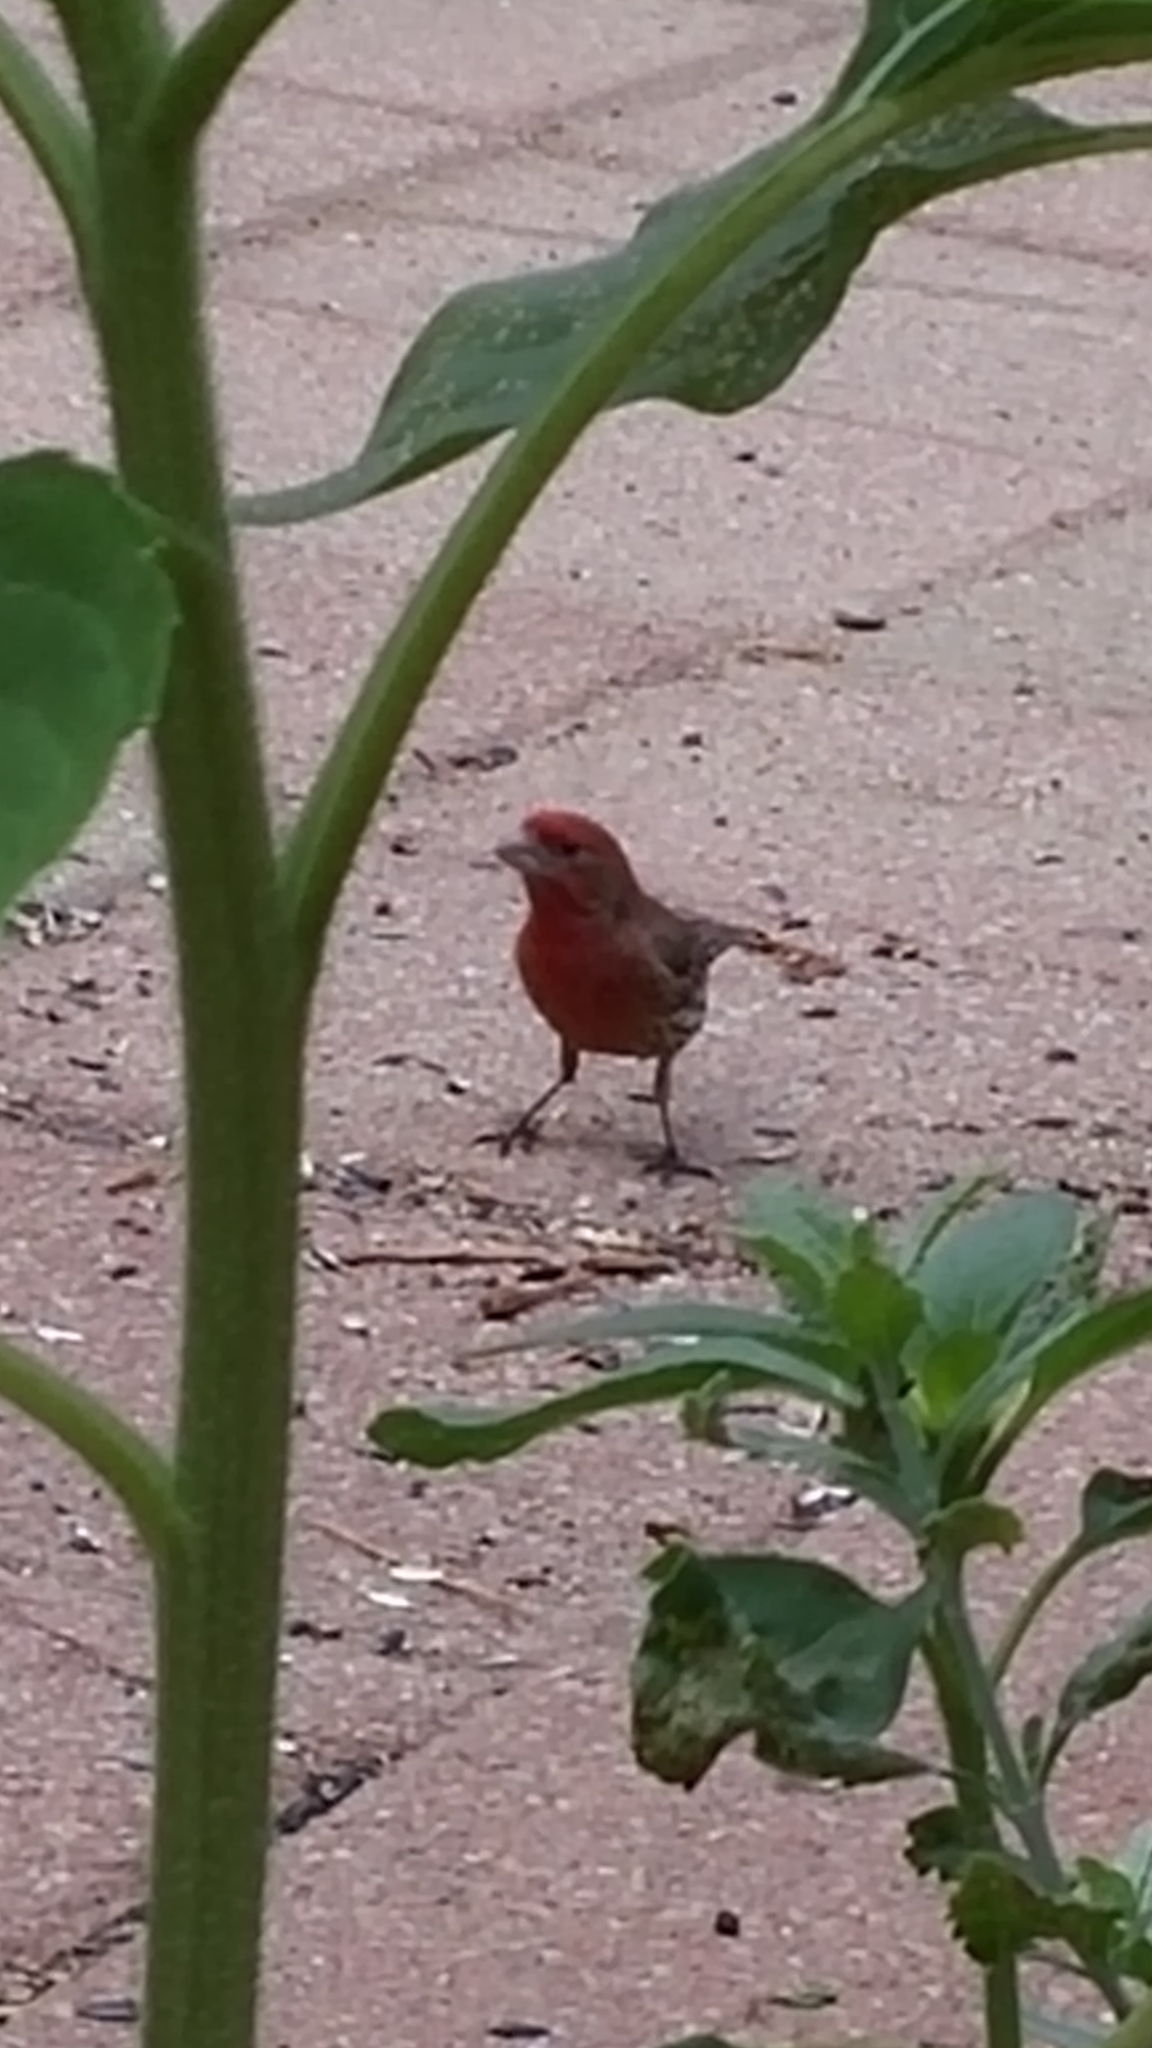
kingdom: Animalia
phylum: Chordata
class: Aves
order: Passeriformes
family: Fringillidae
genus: Haemorhous
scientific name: Haemorhous mexicanus
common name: House finch
